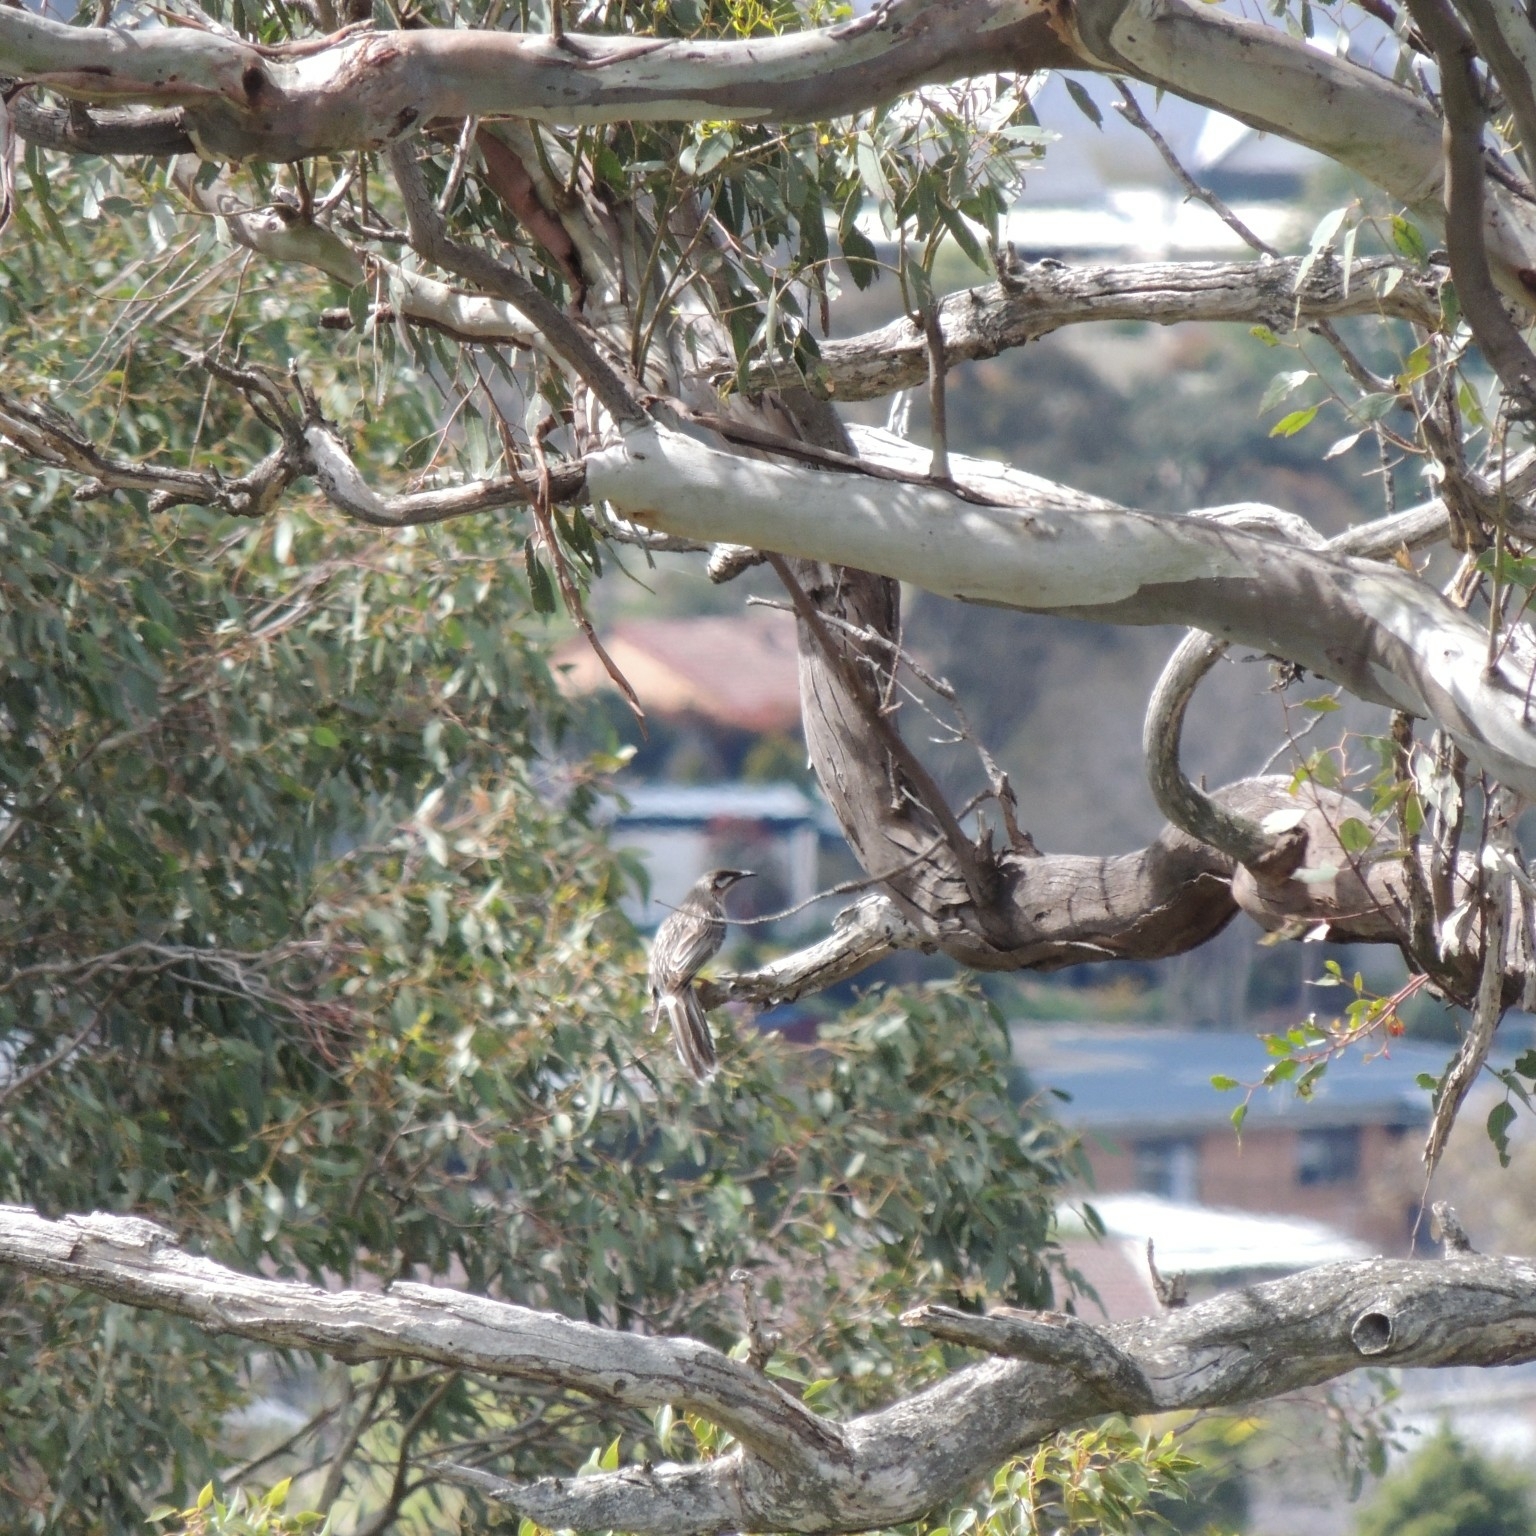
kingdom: Animalia
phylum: Chordata
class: Aves
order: Passeriformes
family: Meliphagidae
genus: Anthochaera
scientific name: Anthochaera carunculata
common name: Red wattlebird
